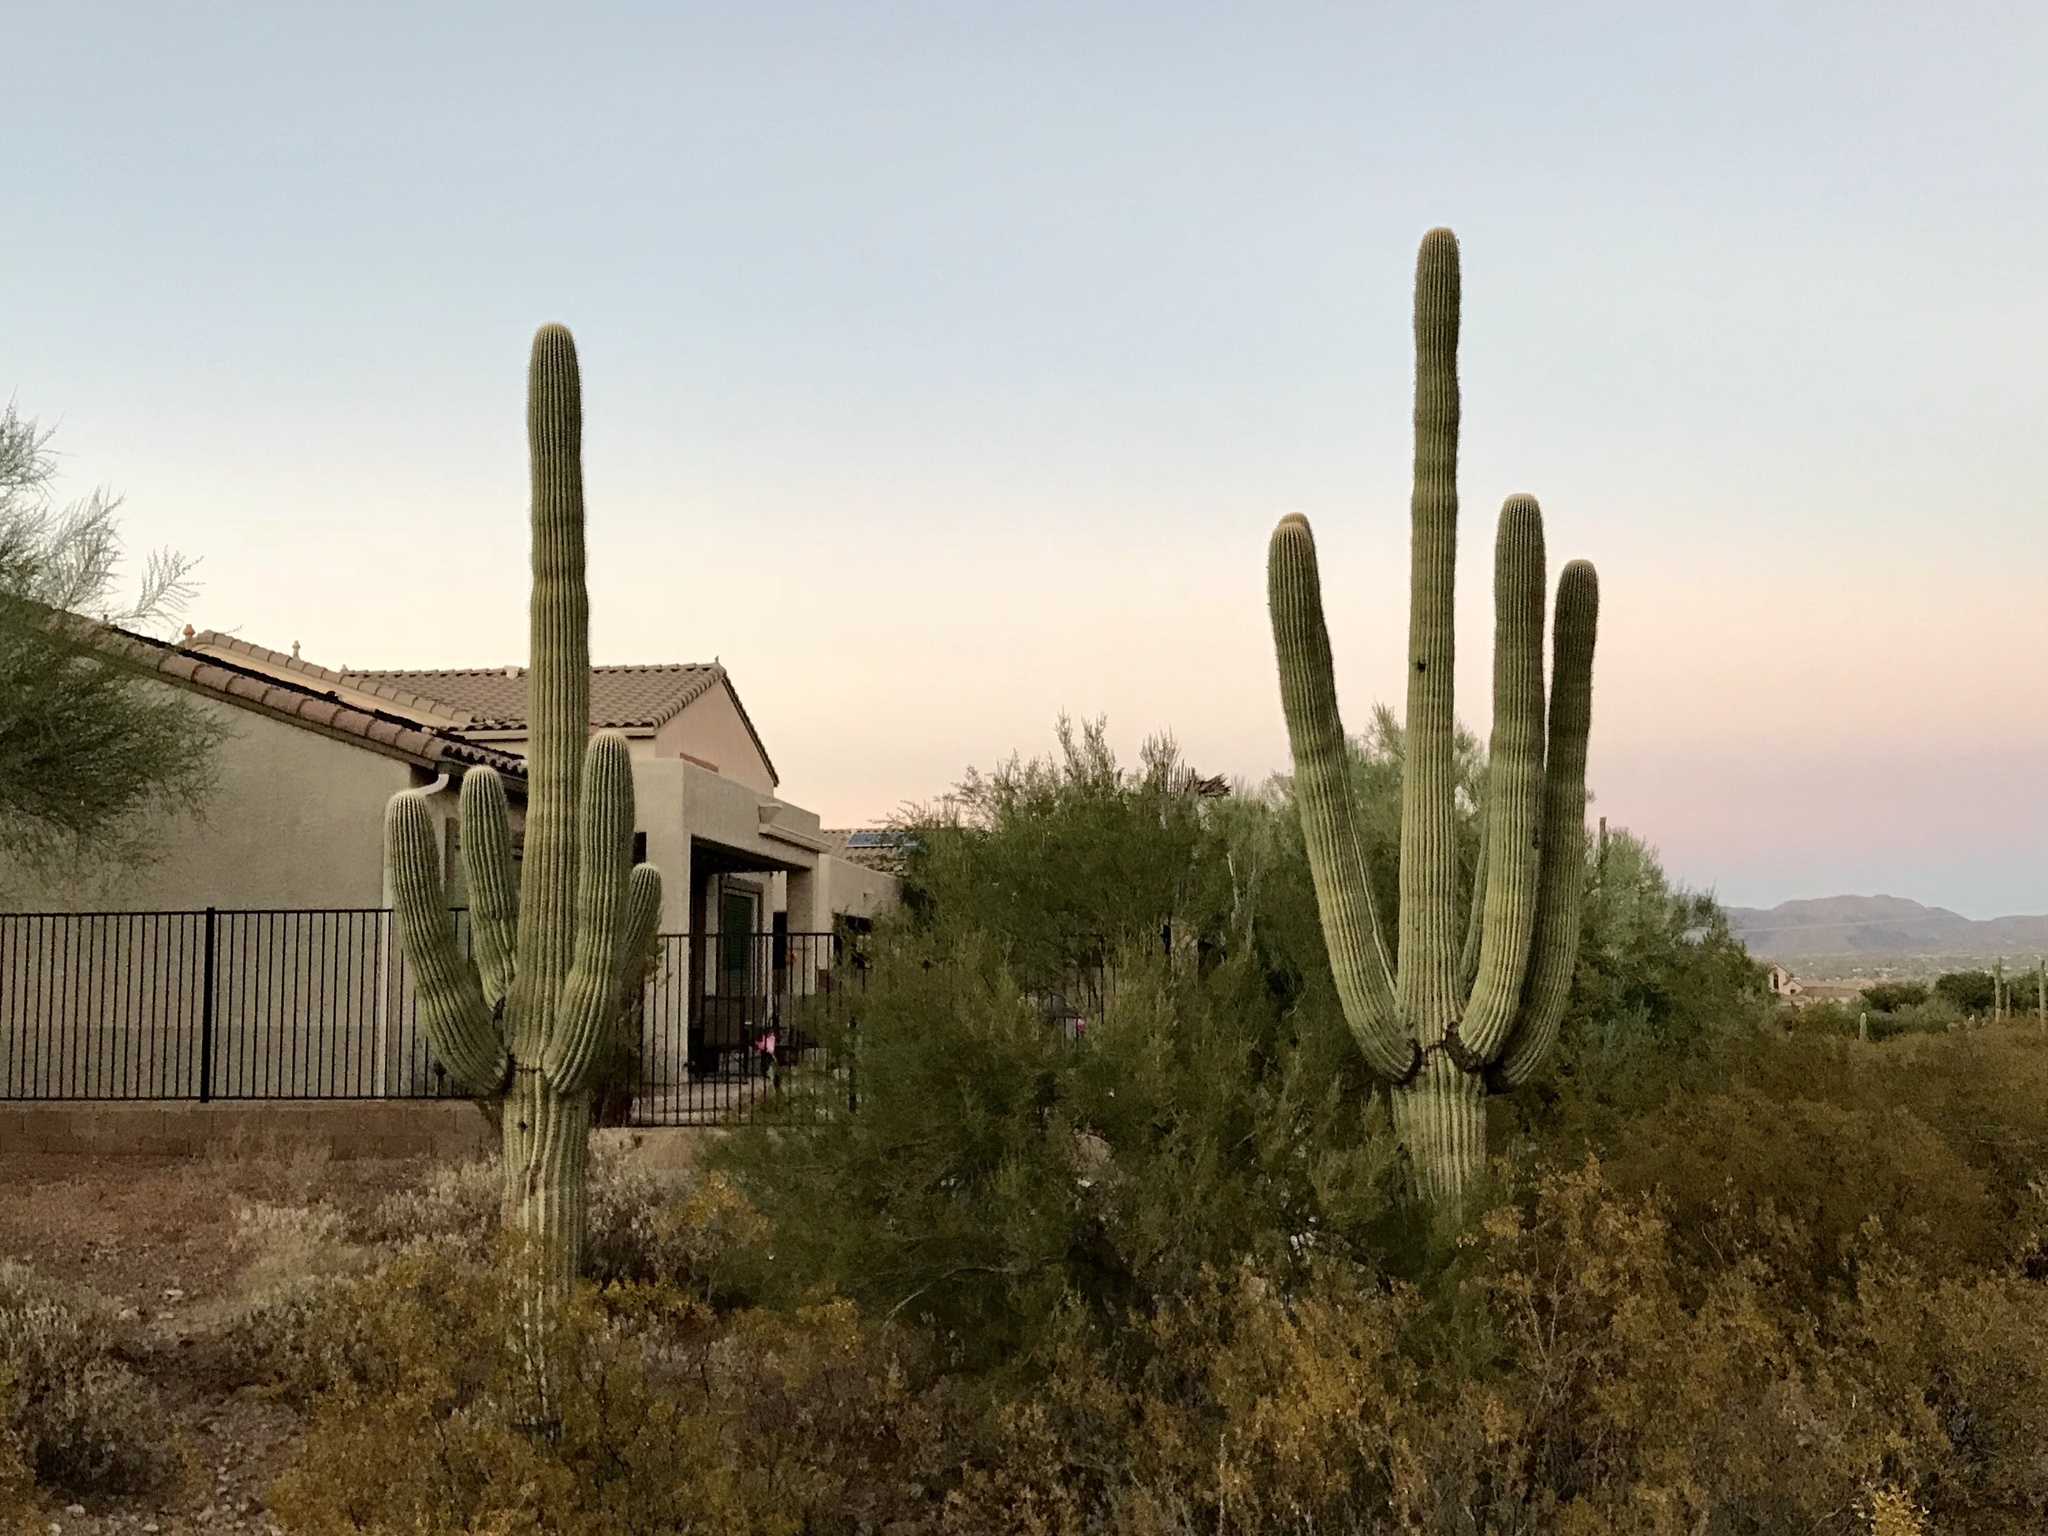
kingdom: Plantae
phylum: Tracheophyta
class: Magnoliopsida
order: Caryophyllales
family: Cactaceae
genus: Carnegiea
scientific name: Carnegiea gigantea
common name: Saguaro
